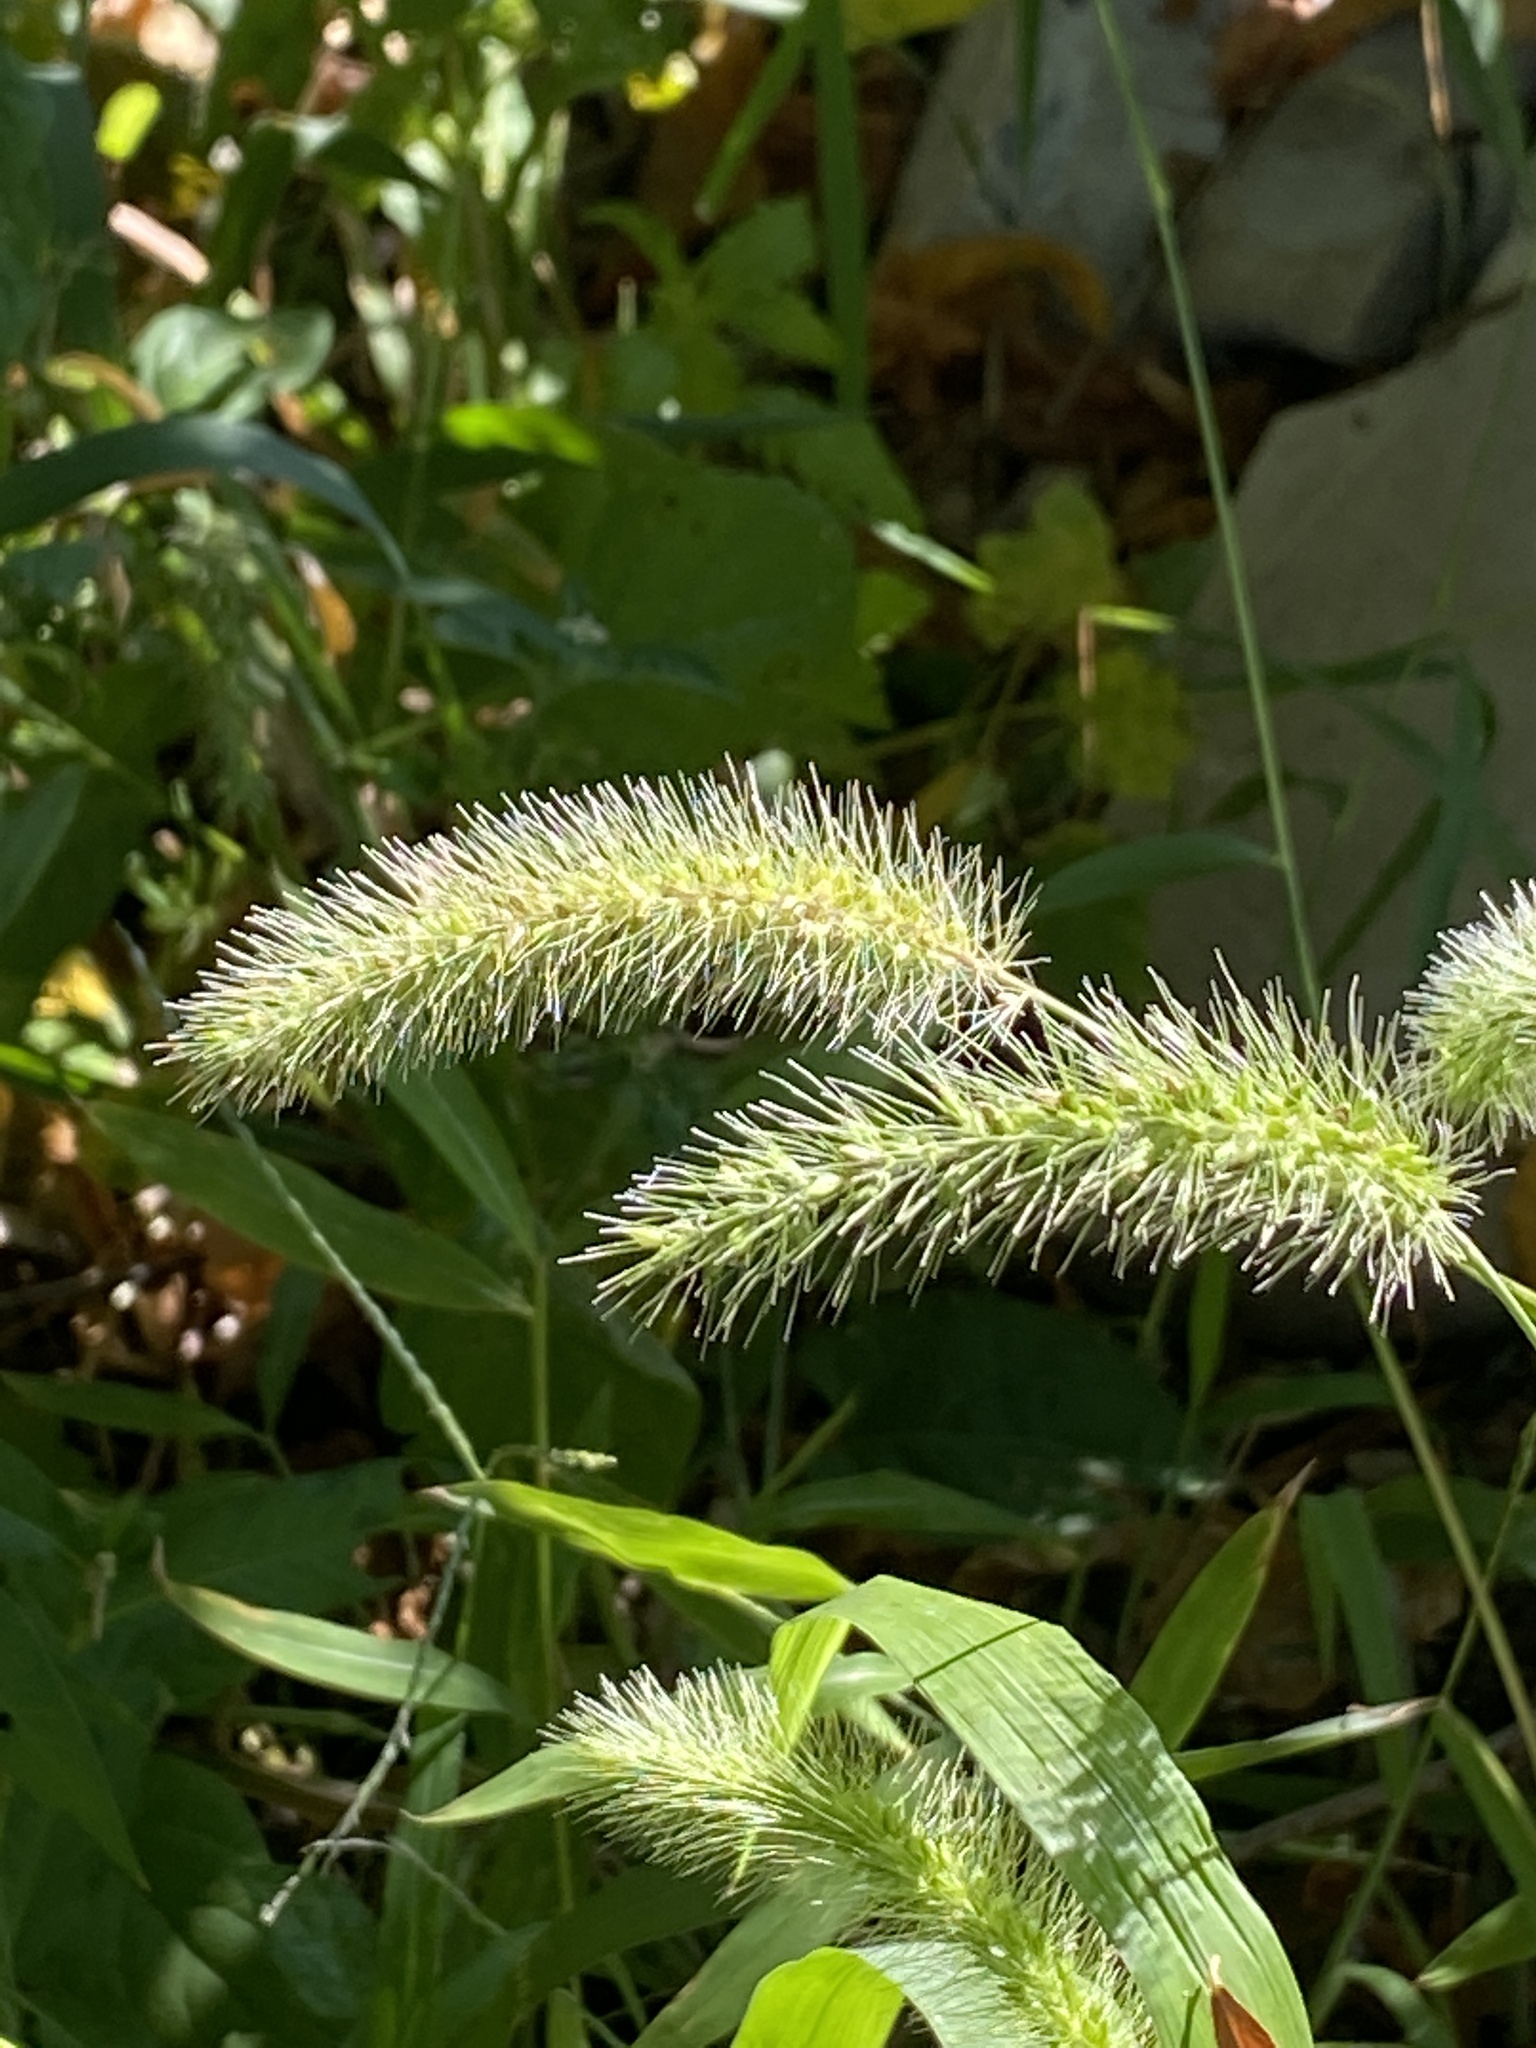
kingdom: Plantae
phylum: Tracheophyta
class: Liliopsida
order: Poales
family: Poaceae
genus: Setaria
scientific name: Setaria faberi
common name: Nodding bristle-grass
